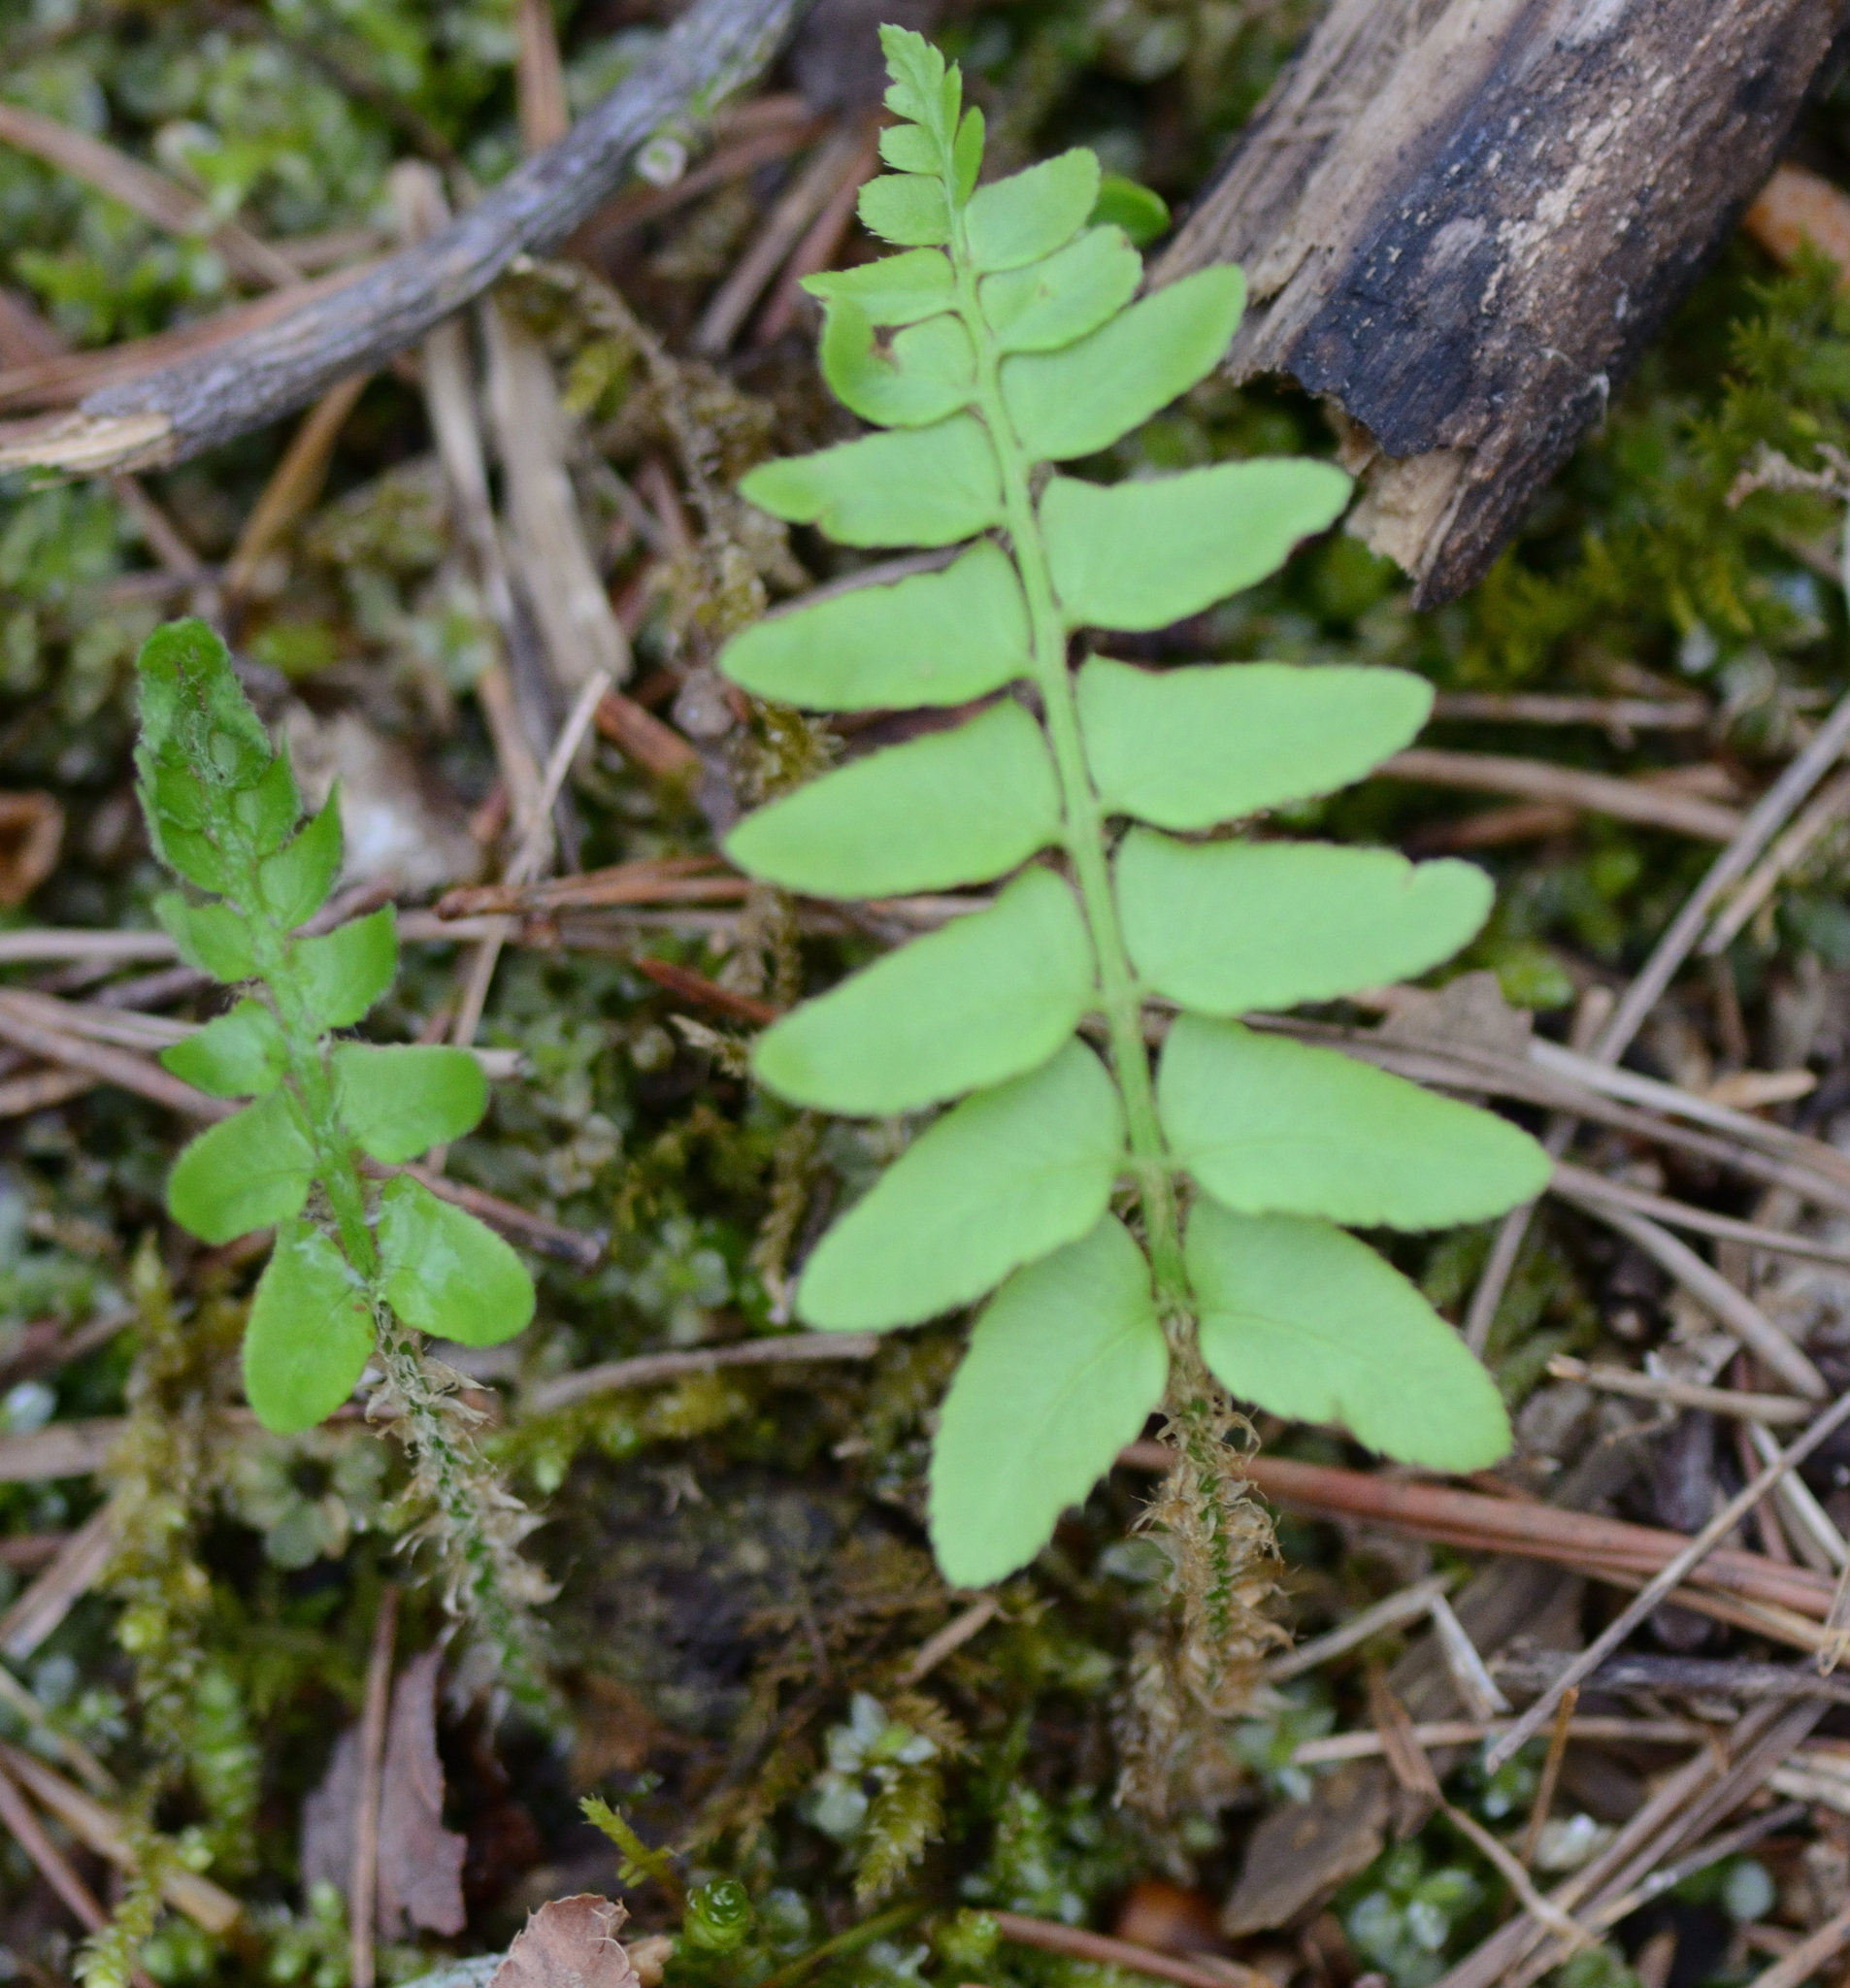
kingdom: Plantae
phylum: Tracheophyta
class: Polypodiopsida
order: Polypodiales
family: Dryopteridaceae
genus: Polystichum
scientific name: Polystichum acrostichoides
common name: Christmas fern
